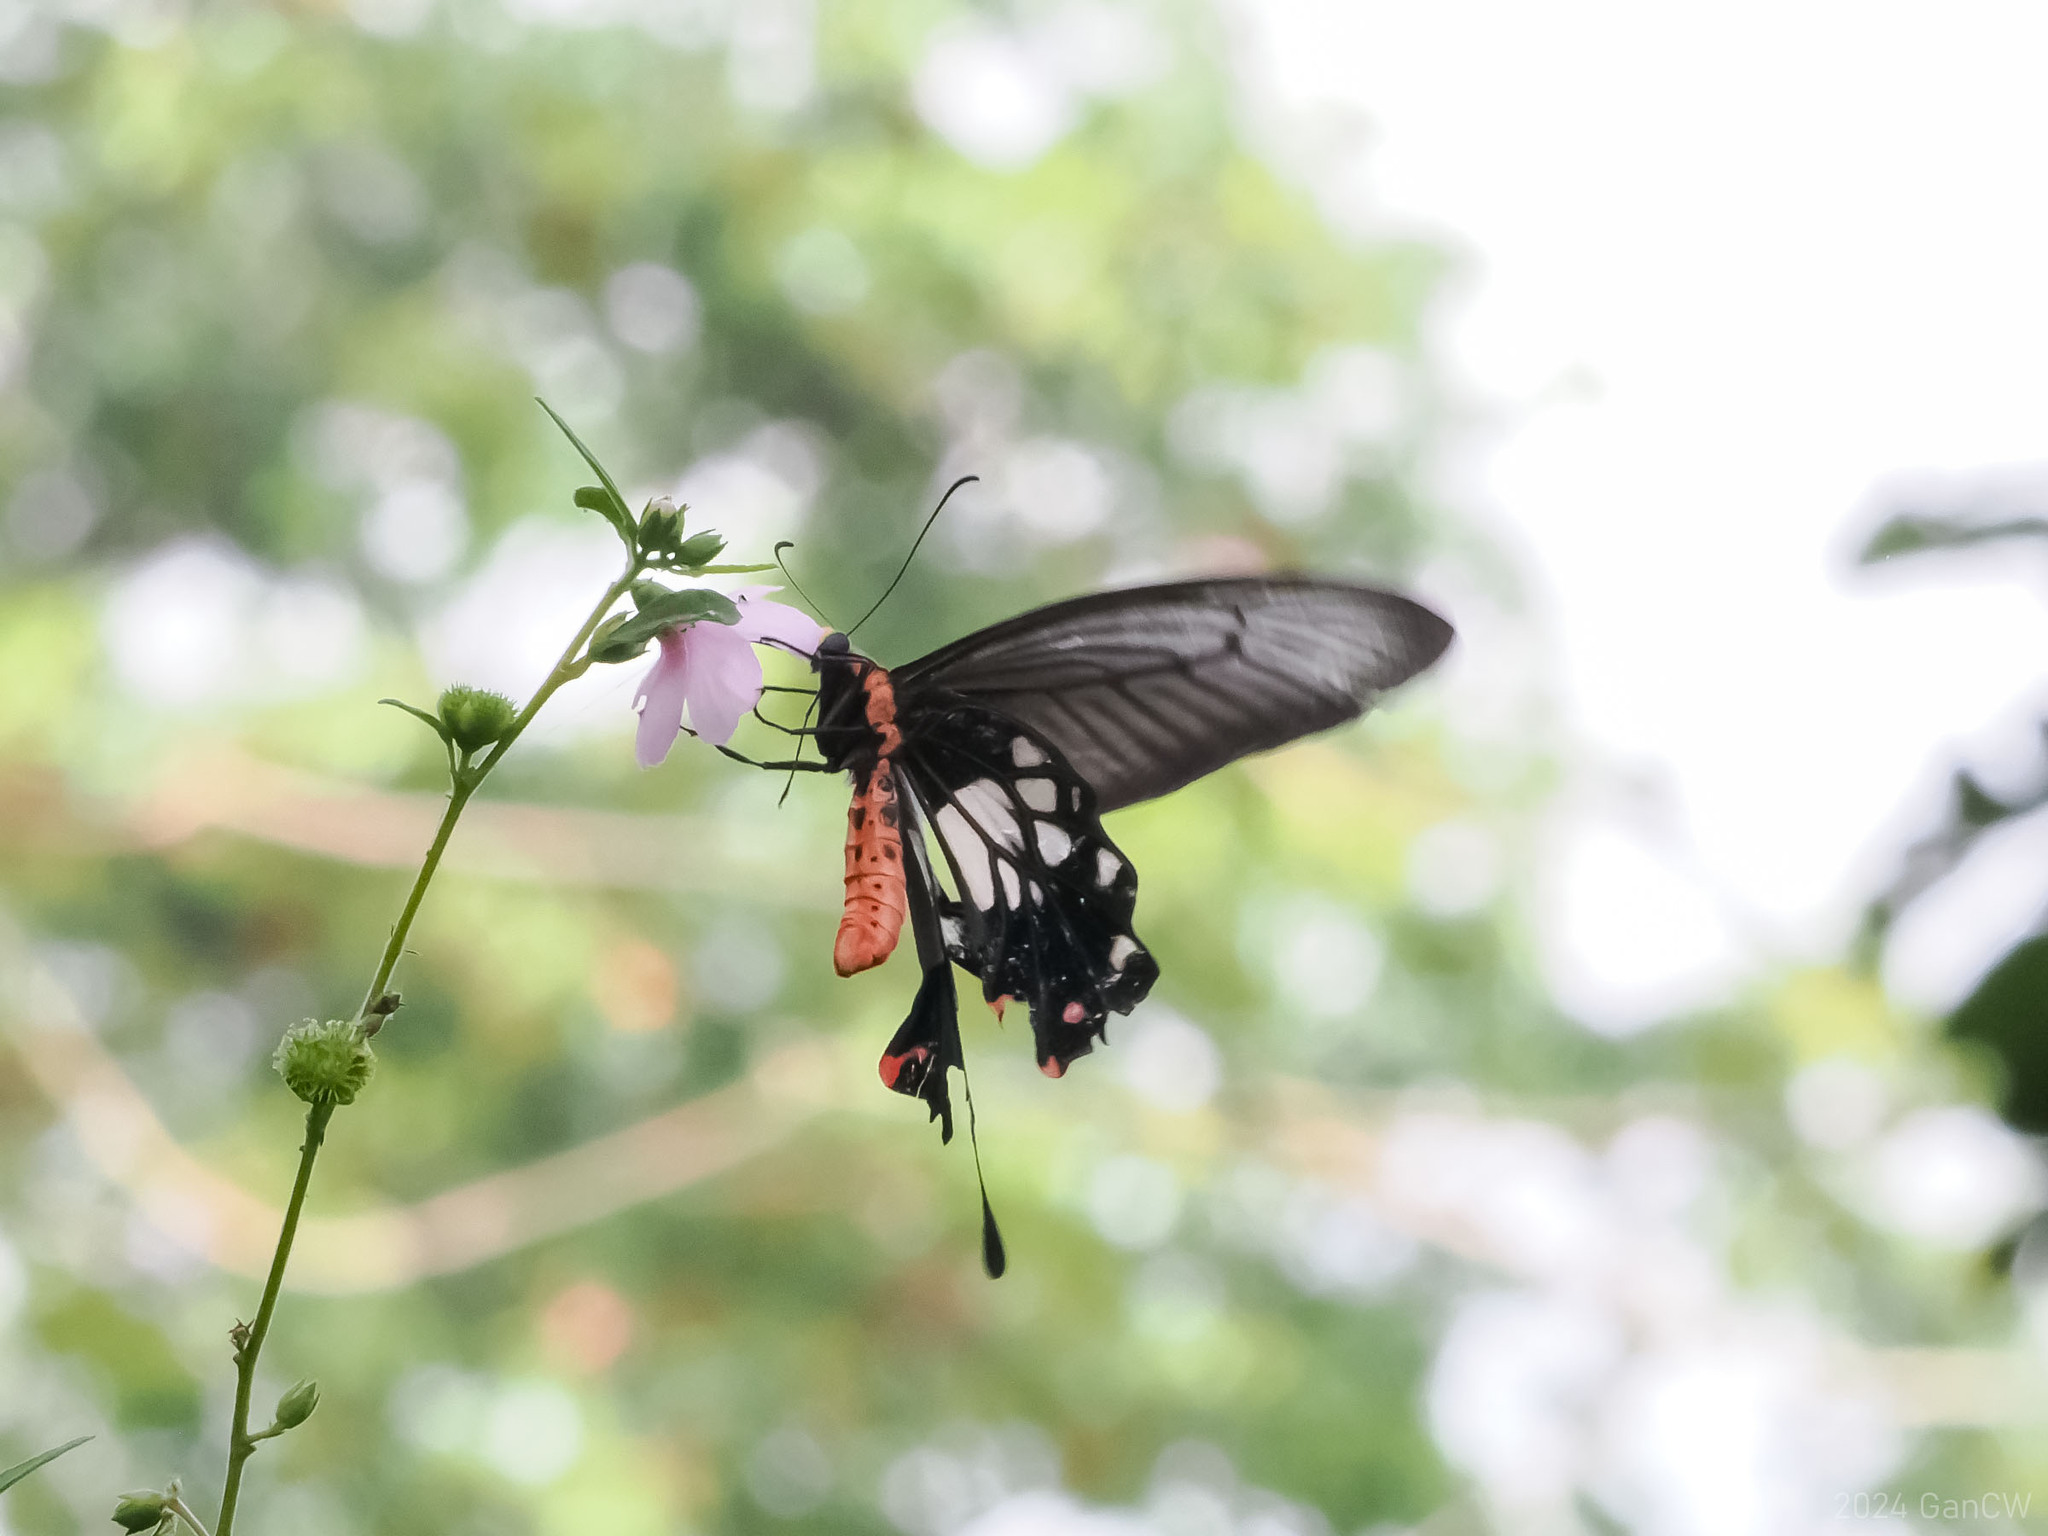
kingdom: Animalia
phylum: Arthropoda
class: Insecta
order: Lepidoptera
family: Papilionidae
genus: Losaria
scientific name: Losaria
